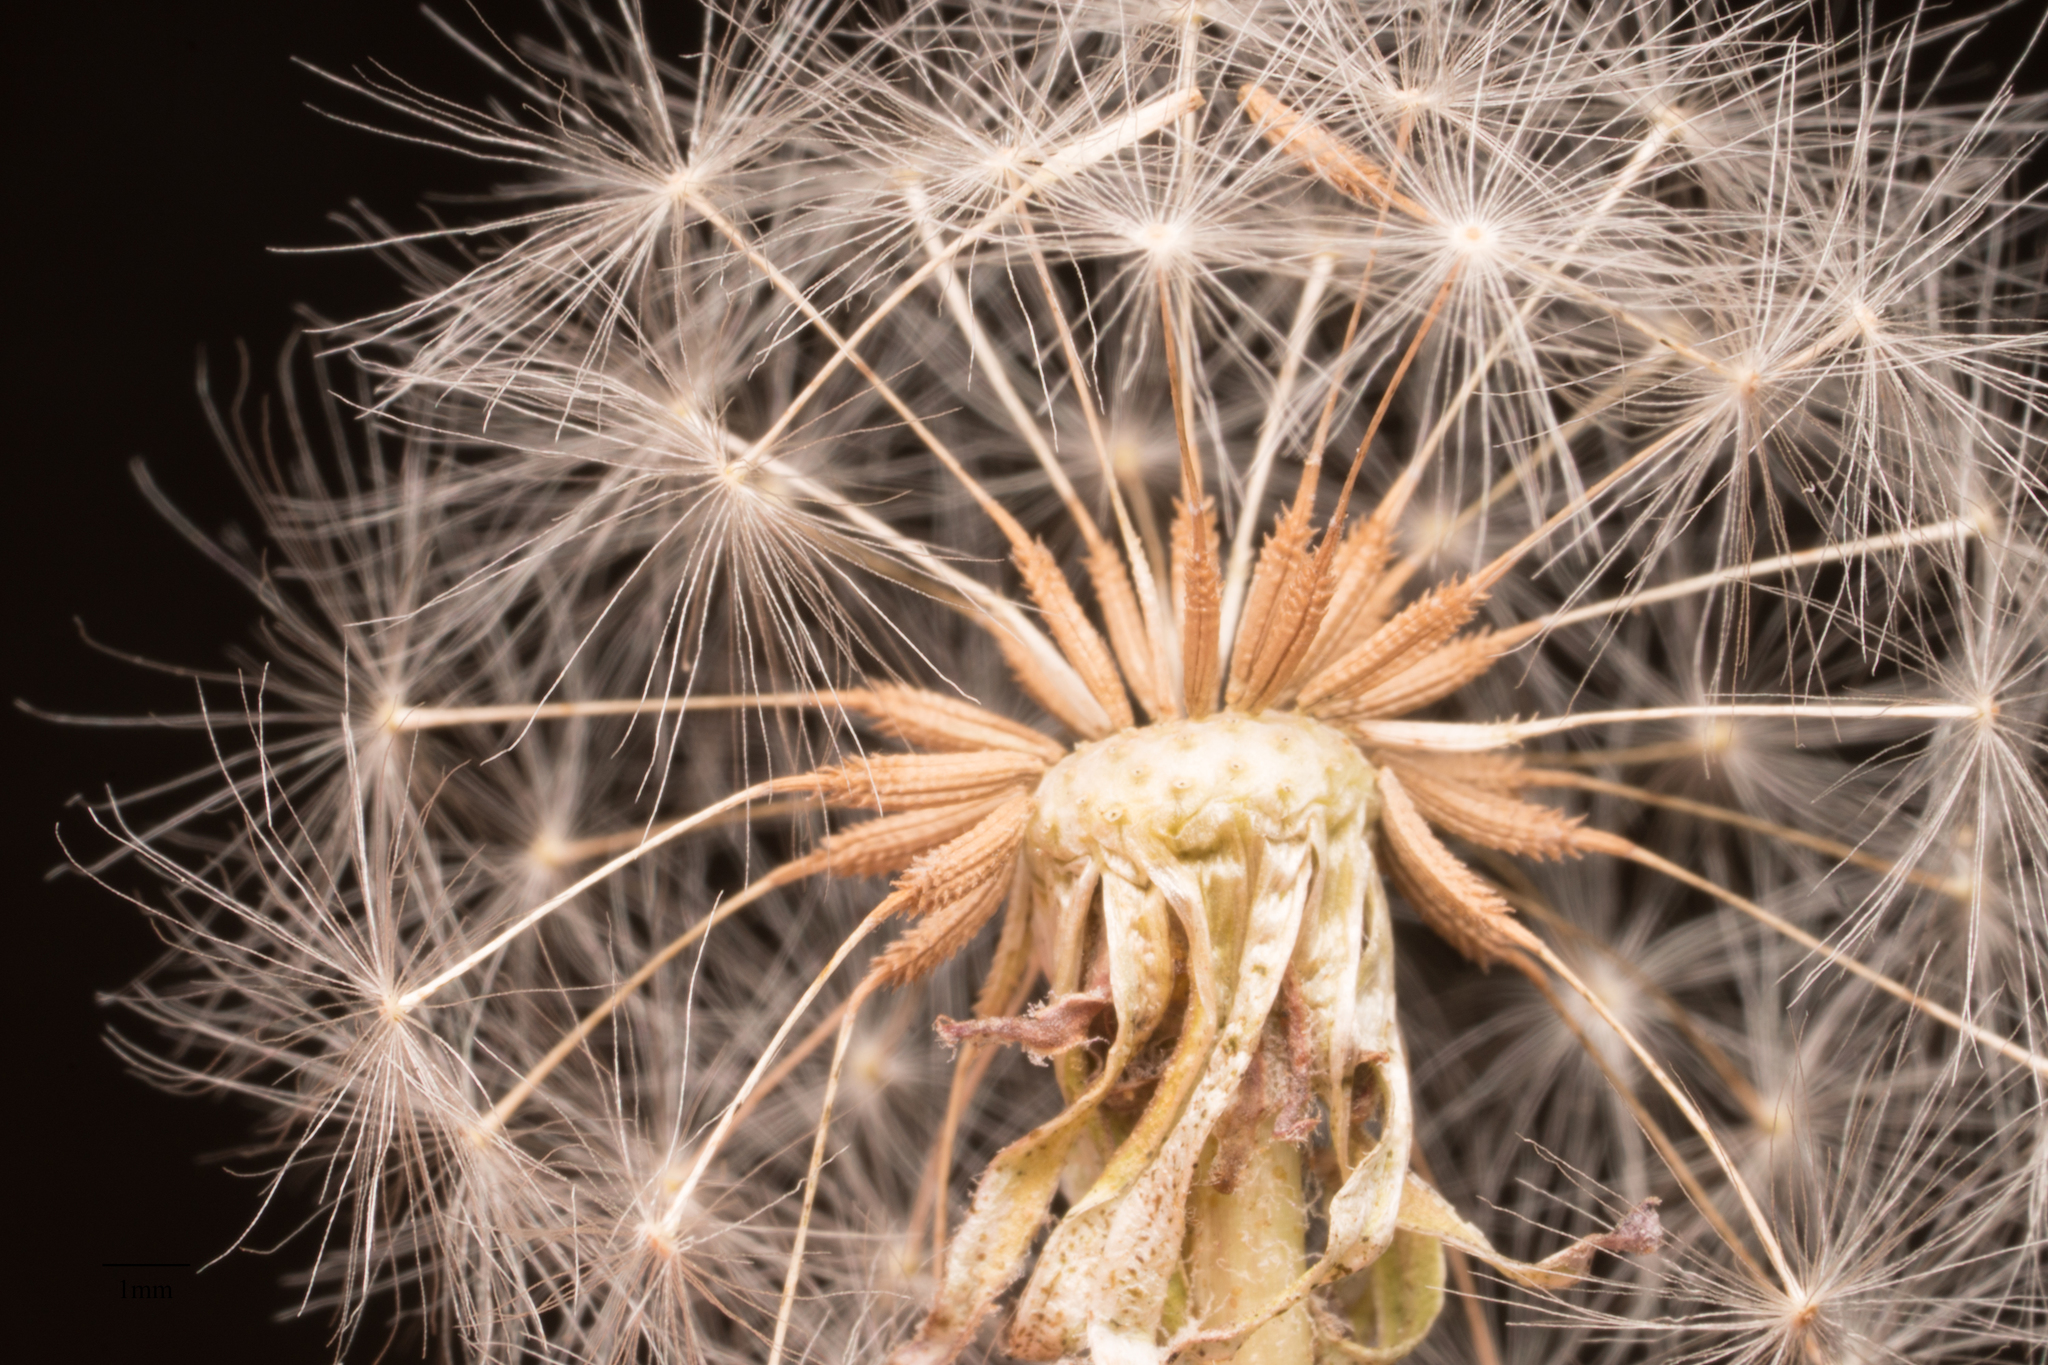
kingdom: Plantae
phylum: Tracheophyta
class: Magnoliopsida
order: Asterales
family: Asteraceae
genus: Taraxacum
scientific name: Taraxacum officinale
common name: Common dandelion
